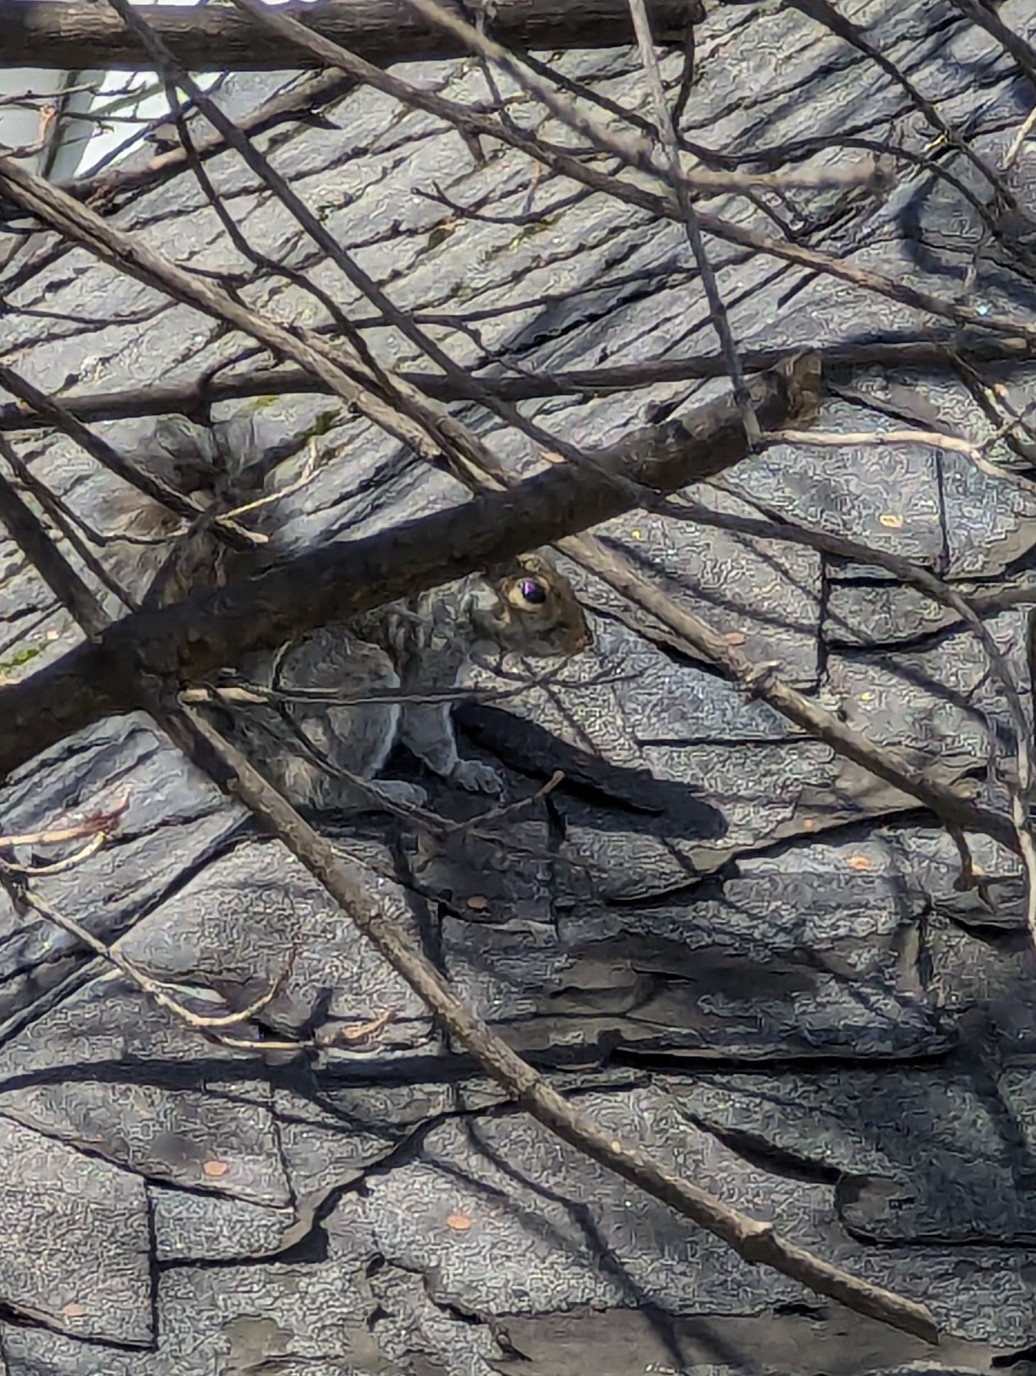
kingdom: Animalia
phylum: Chordata
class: Mammalia
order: Rodentia
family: Sciuridae
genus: Sciurus
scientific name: Sciurus carolinensis
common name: Eastern gray squirrel
